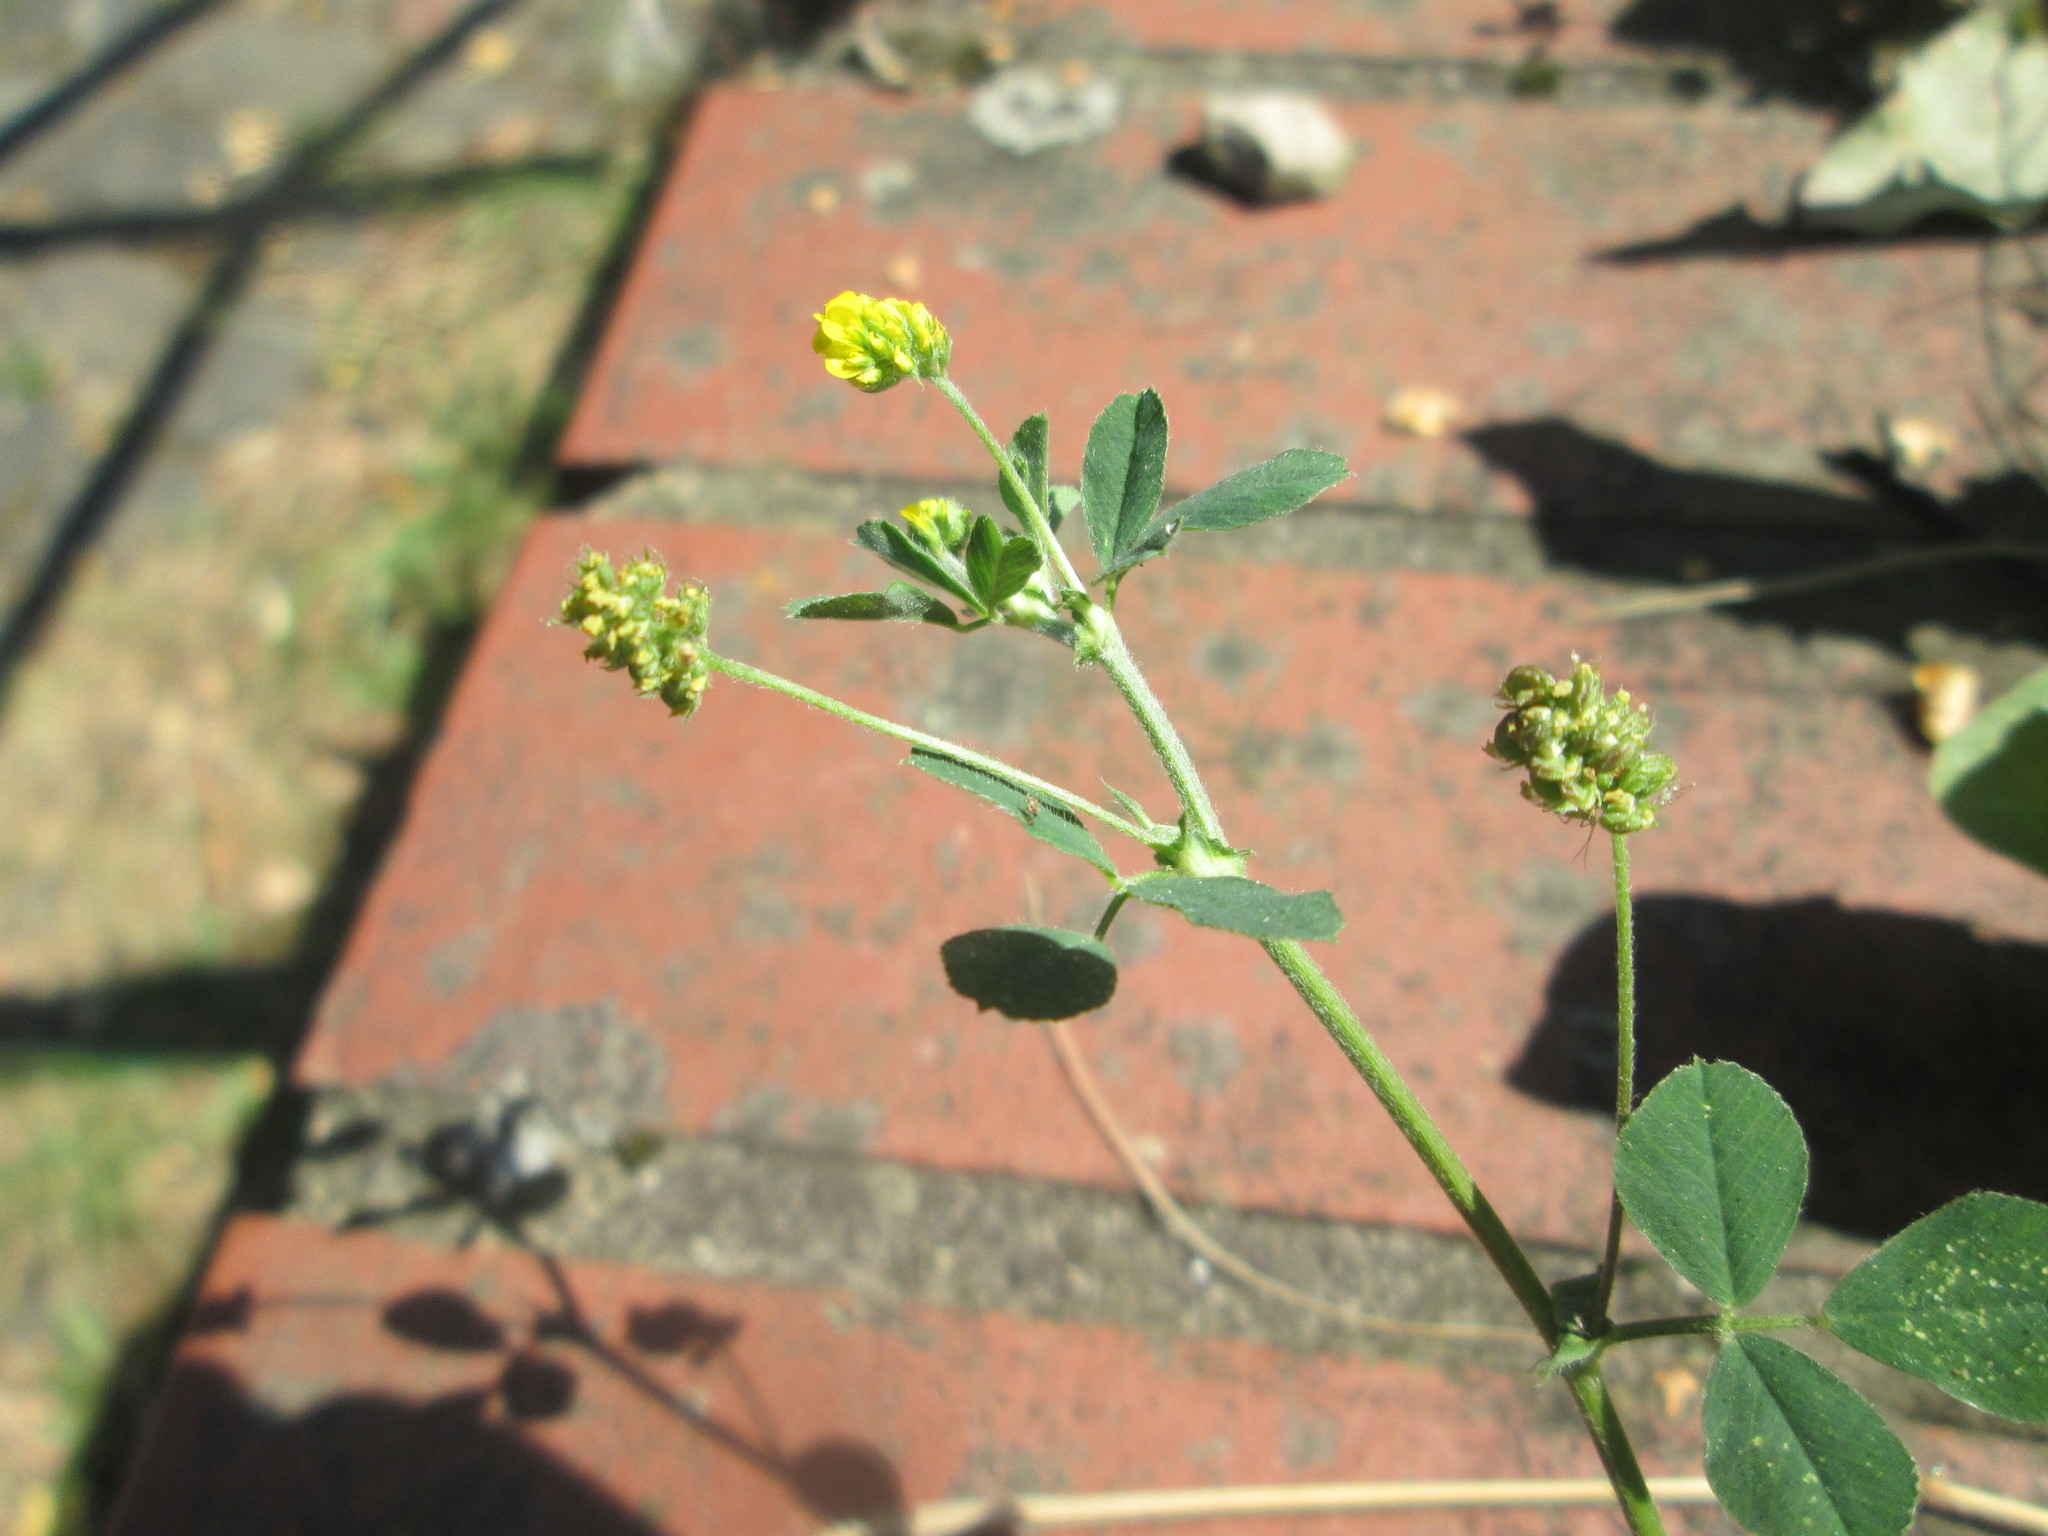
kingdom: Plantae
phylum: Tracheophyta
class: Magnoliopsida
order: Fabales
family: Fabaceae
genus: Medicago
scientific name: Medicago lupulina
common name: Black medick
